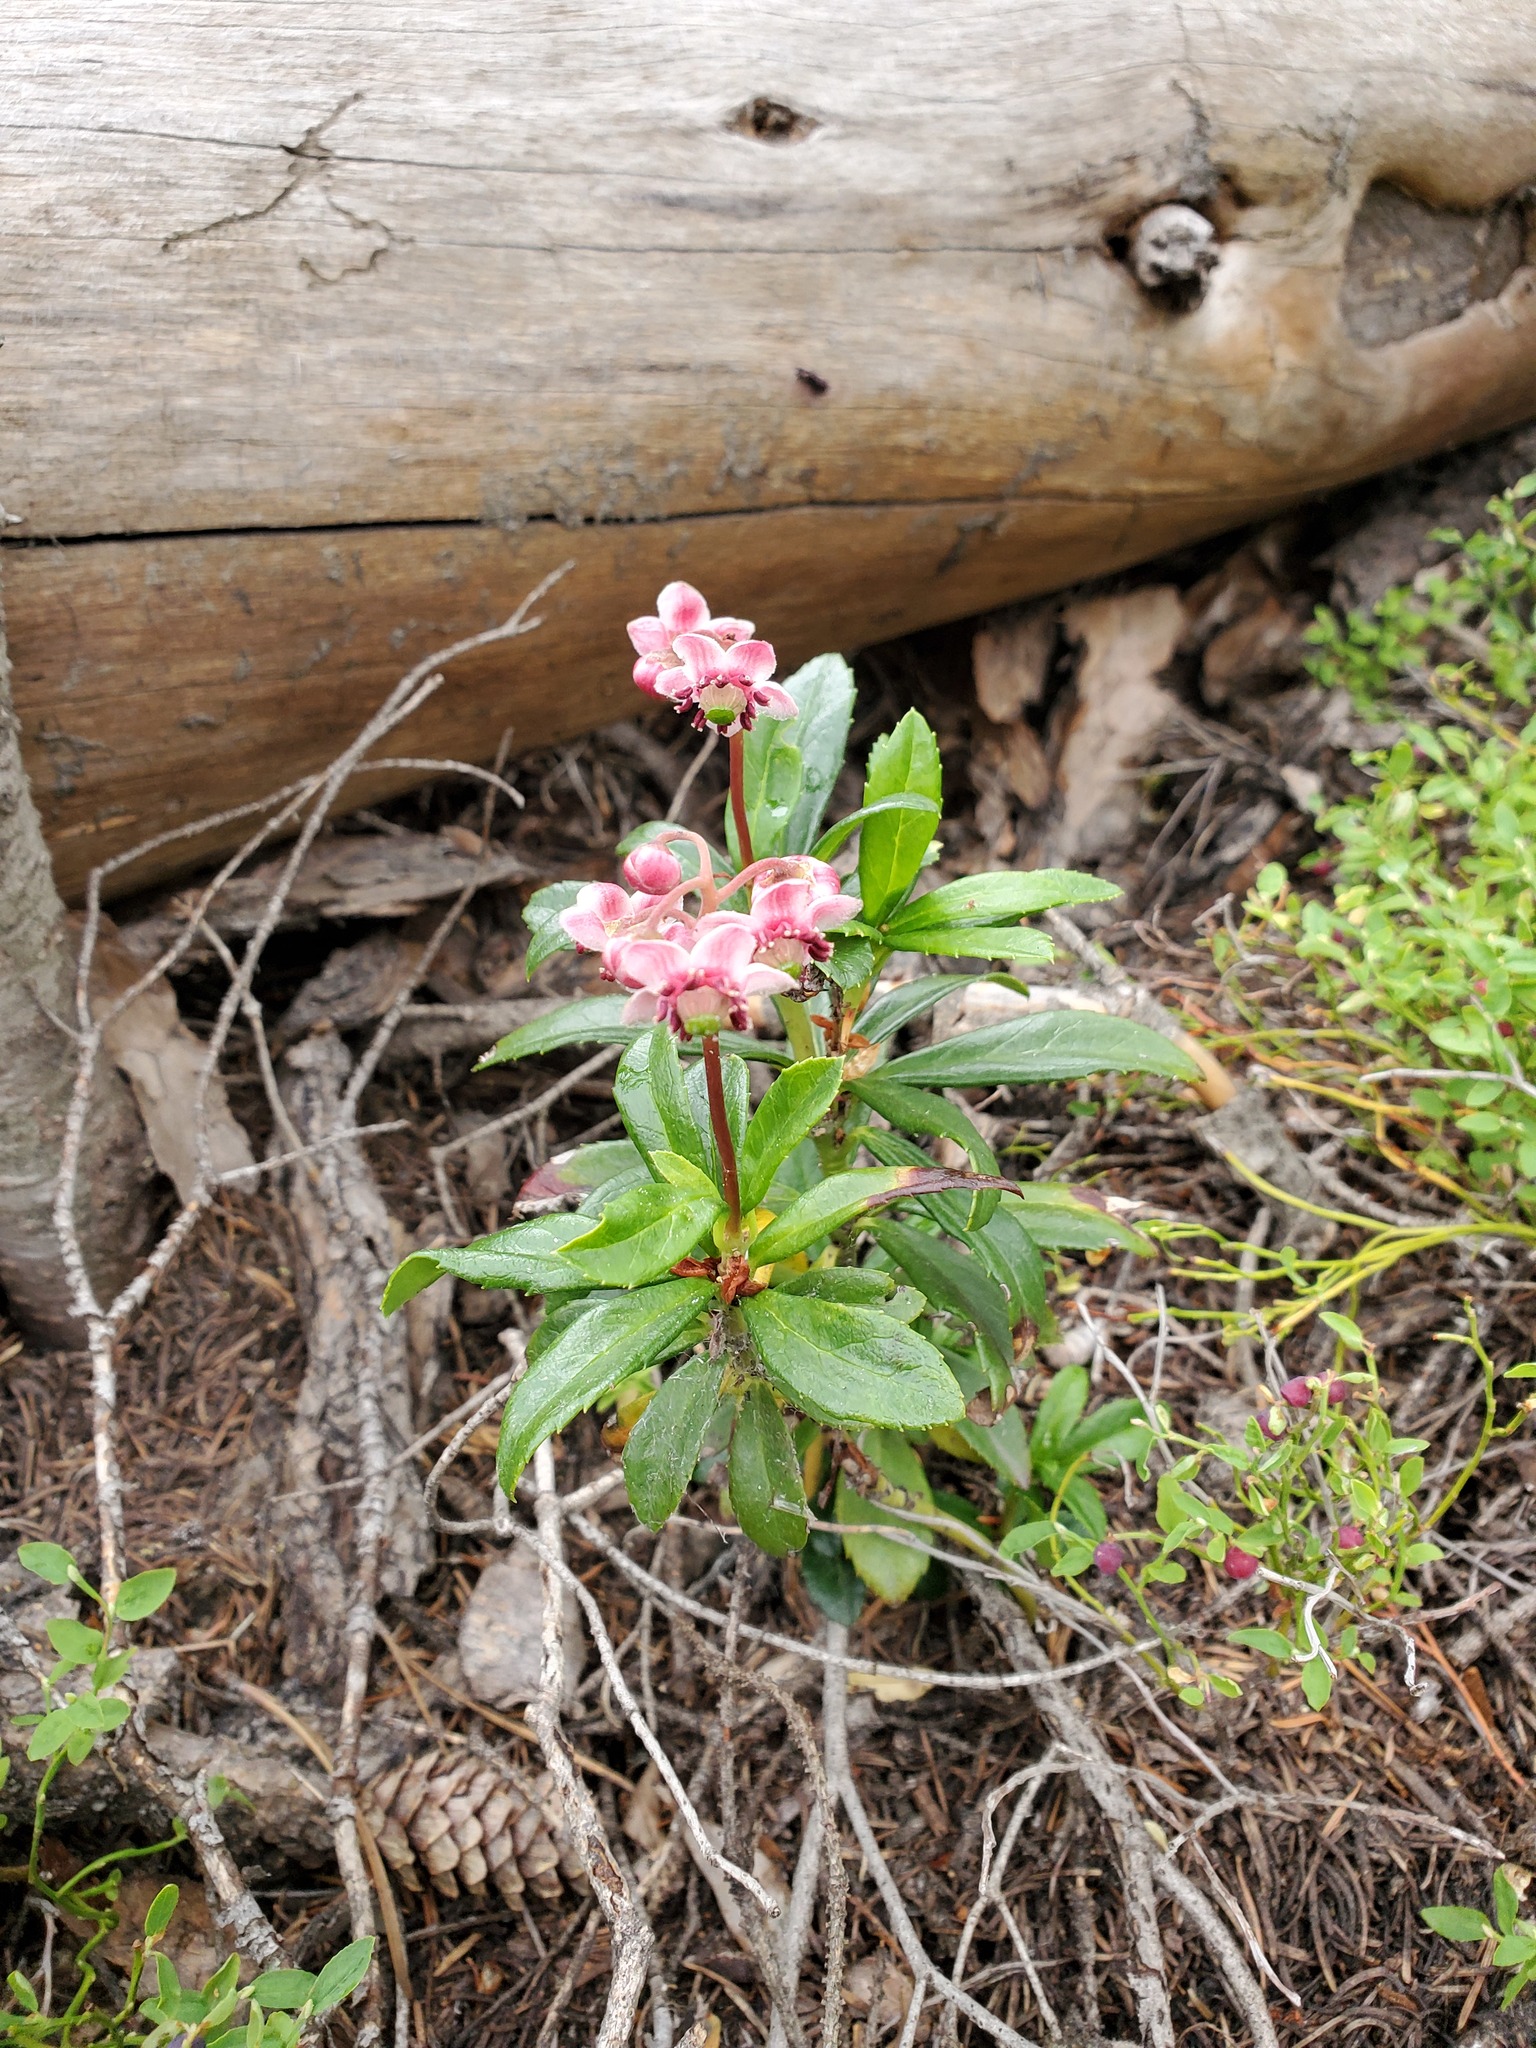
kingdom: Plantae
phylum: Tracheophyta
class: Magnoliopsida
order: Ericales
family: Ericaceae
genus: Chimaphila
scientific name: Chimaphila umbellata
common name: Pipsissewa
